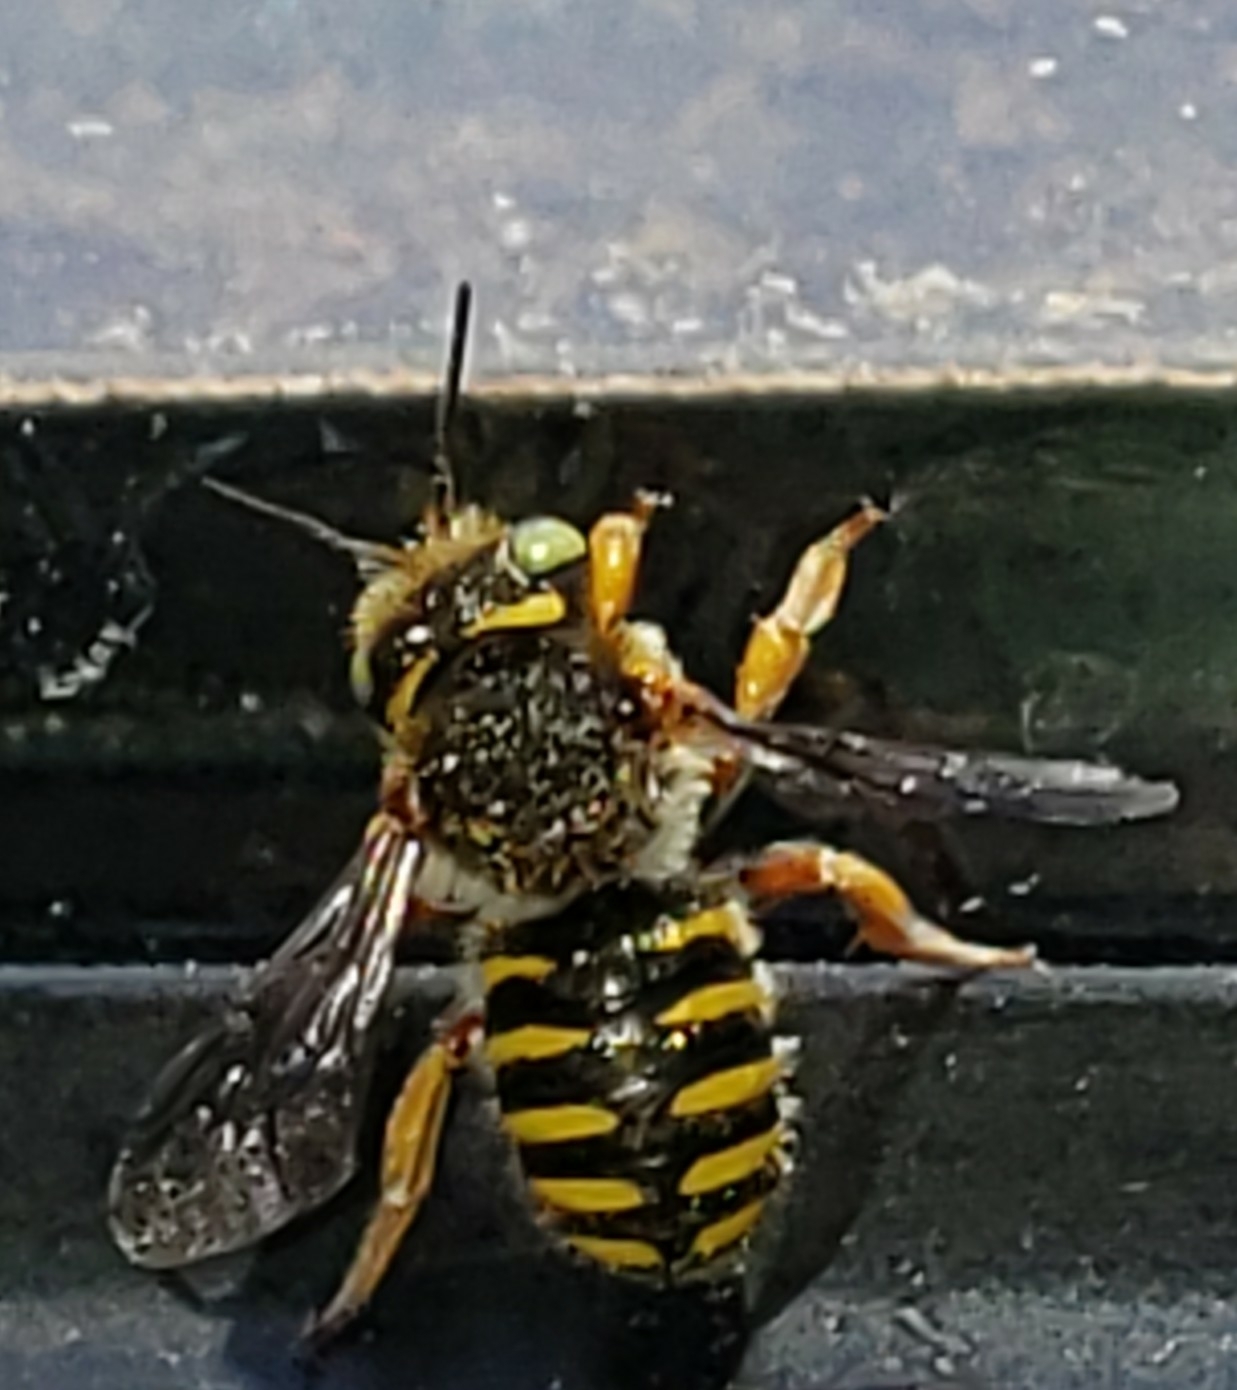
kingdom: Animalia
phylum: Arthropoda
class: Insecta
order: Hymenoptera
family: Megachilidae
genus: Anthidium
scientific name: Anthidium oblongatum
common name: Oblong wool carder bee
